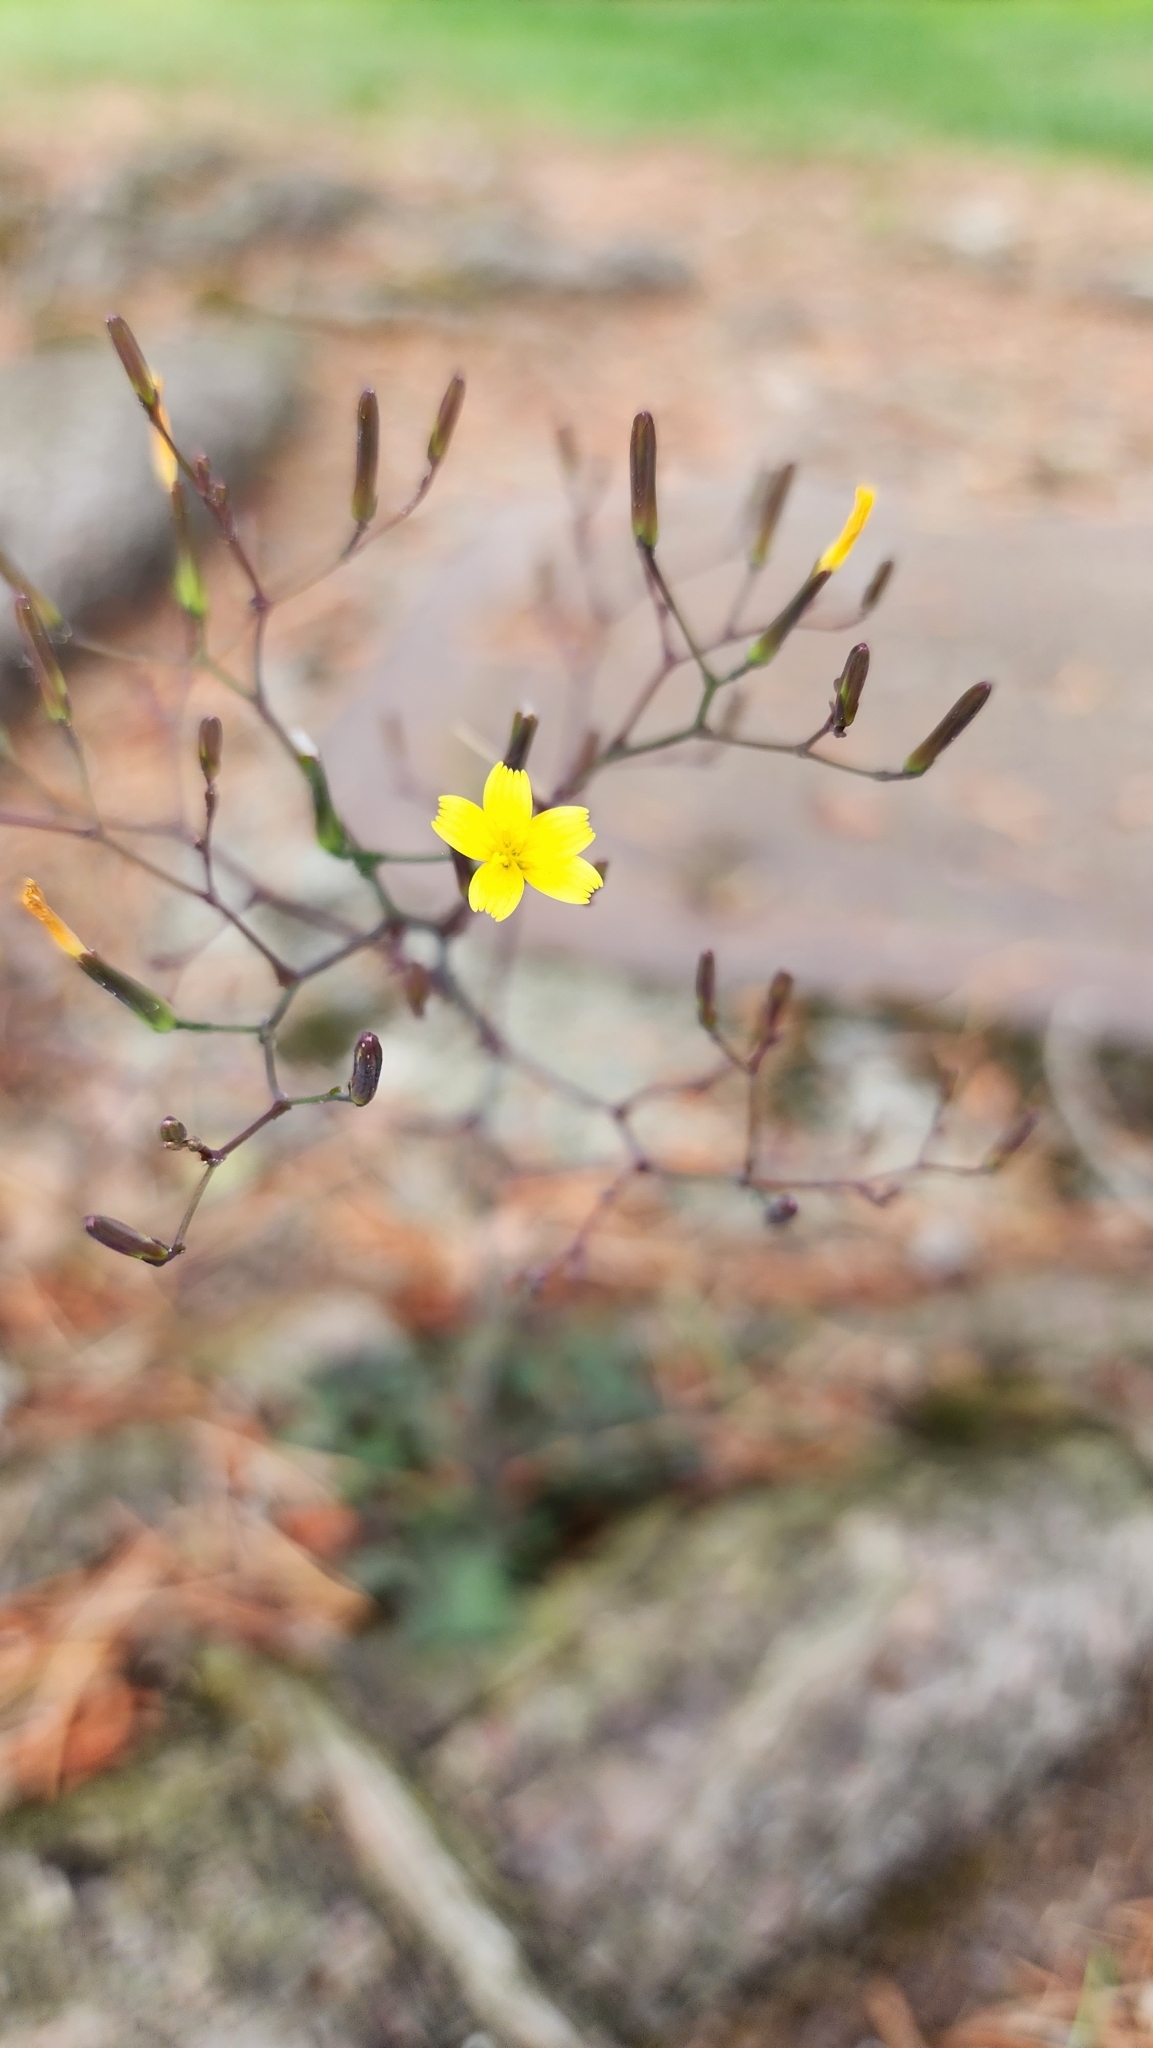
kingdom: Plantae
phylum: Tracheophyta
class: Magnoliopsida
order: Asterales
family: Asteraceae
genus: Mycelis
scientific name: Mycelis muralis
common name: Wall lettuce
